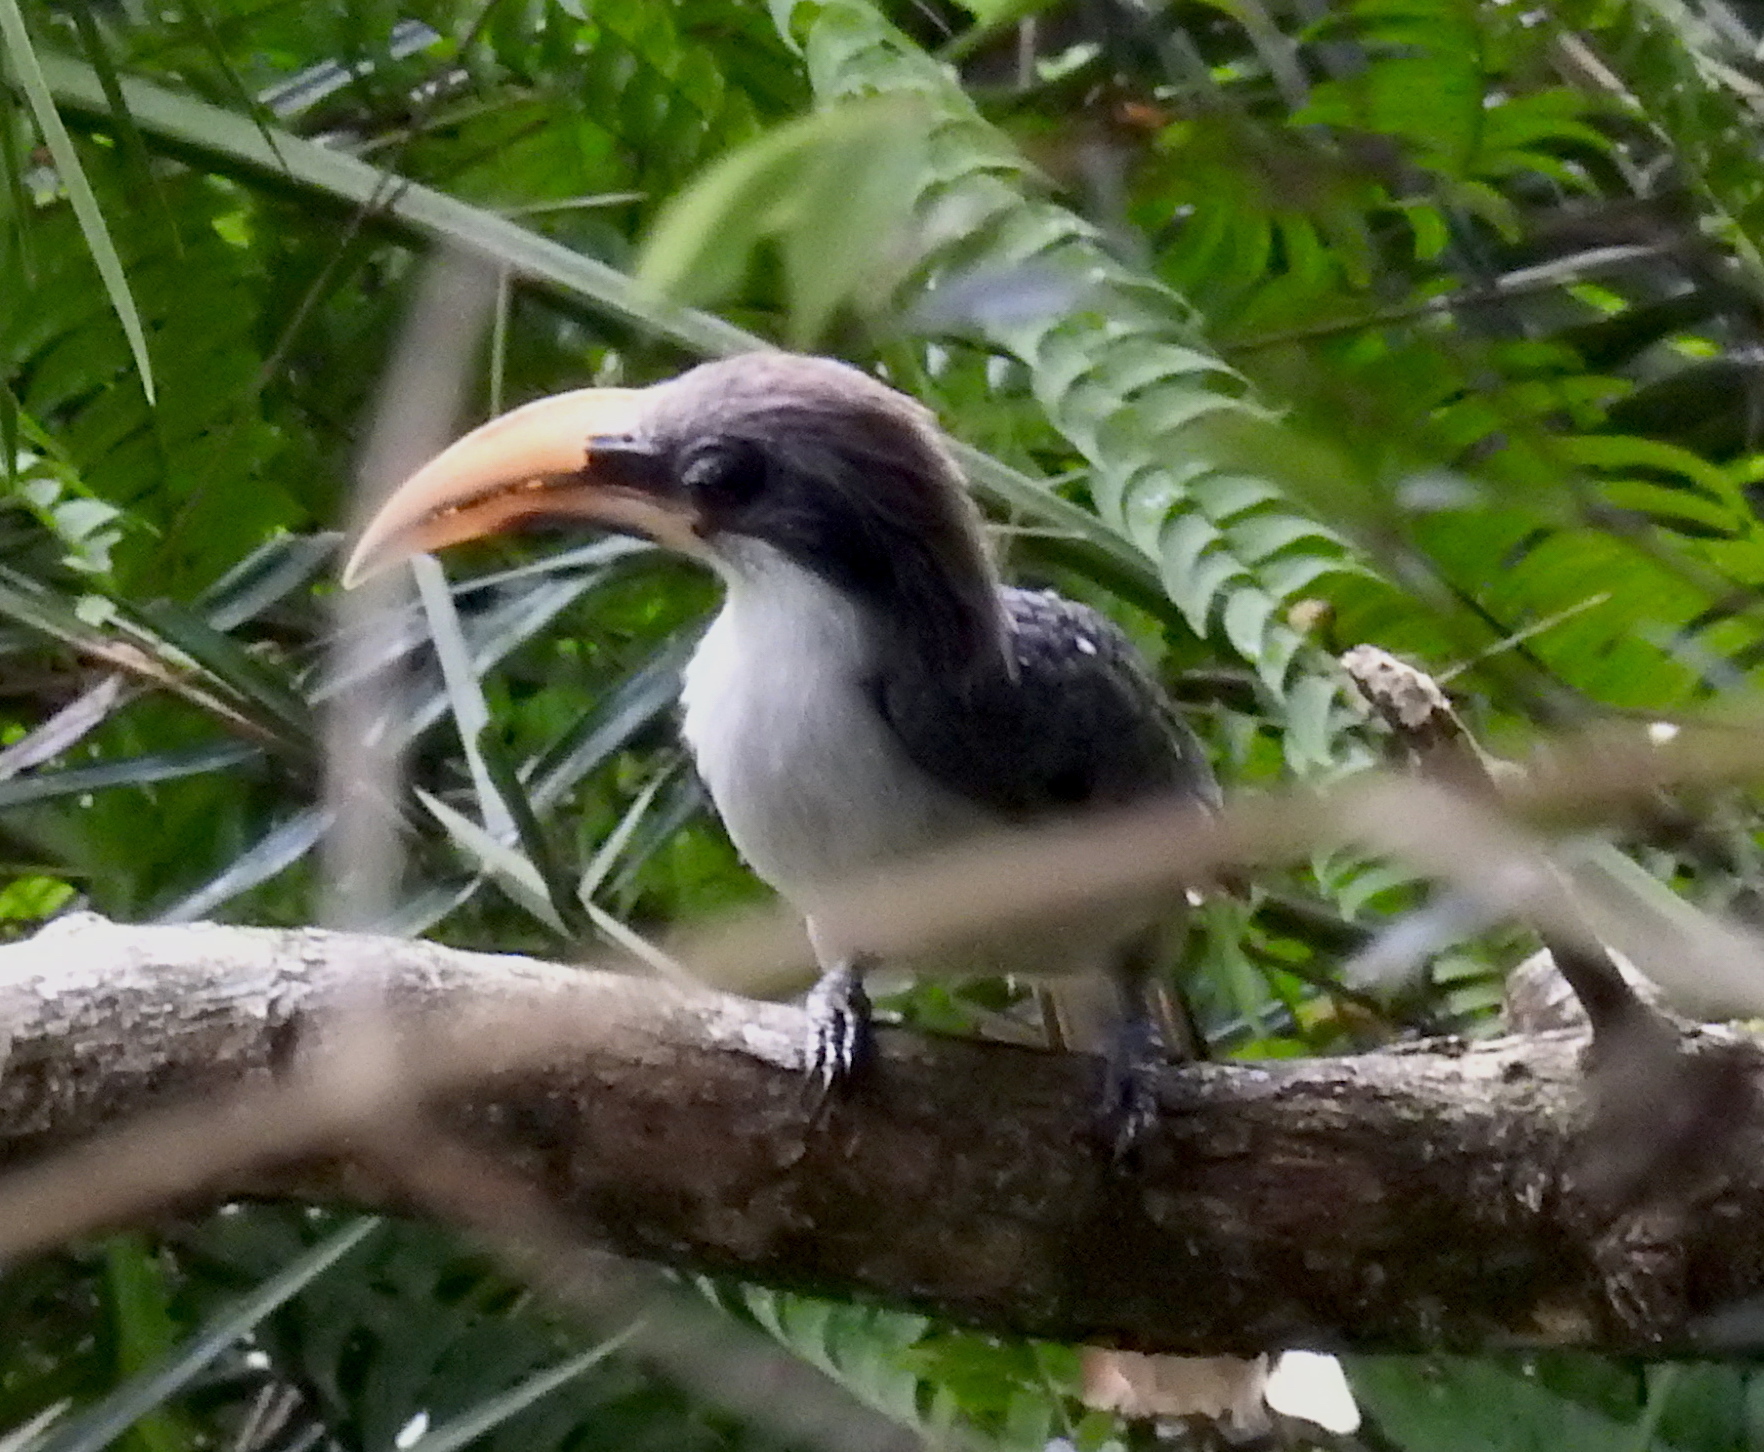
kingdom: Animalia
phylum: Chordata
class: Aves
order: Bucerotiformes
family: Bucerotidae
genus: Ocyceros
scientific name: Ocyceros gingalensis
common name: Sri lanka grey hornbill
